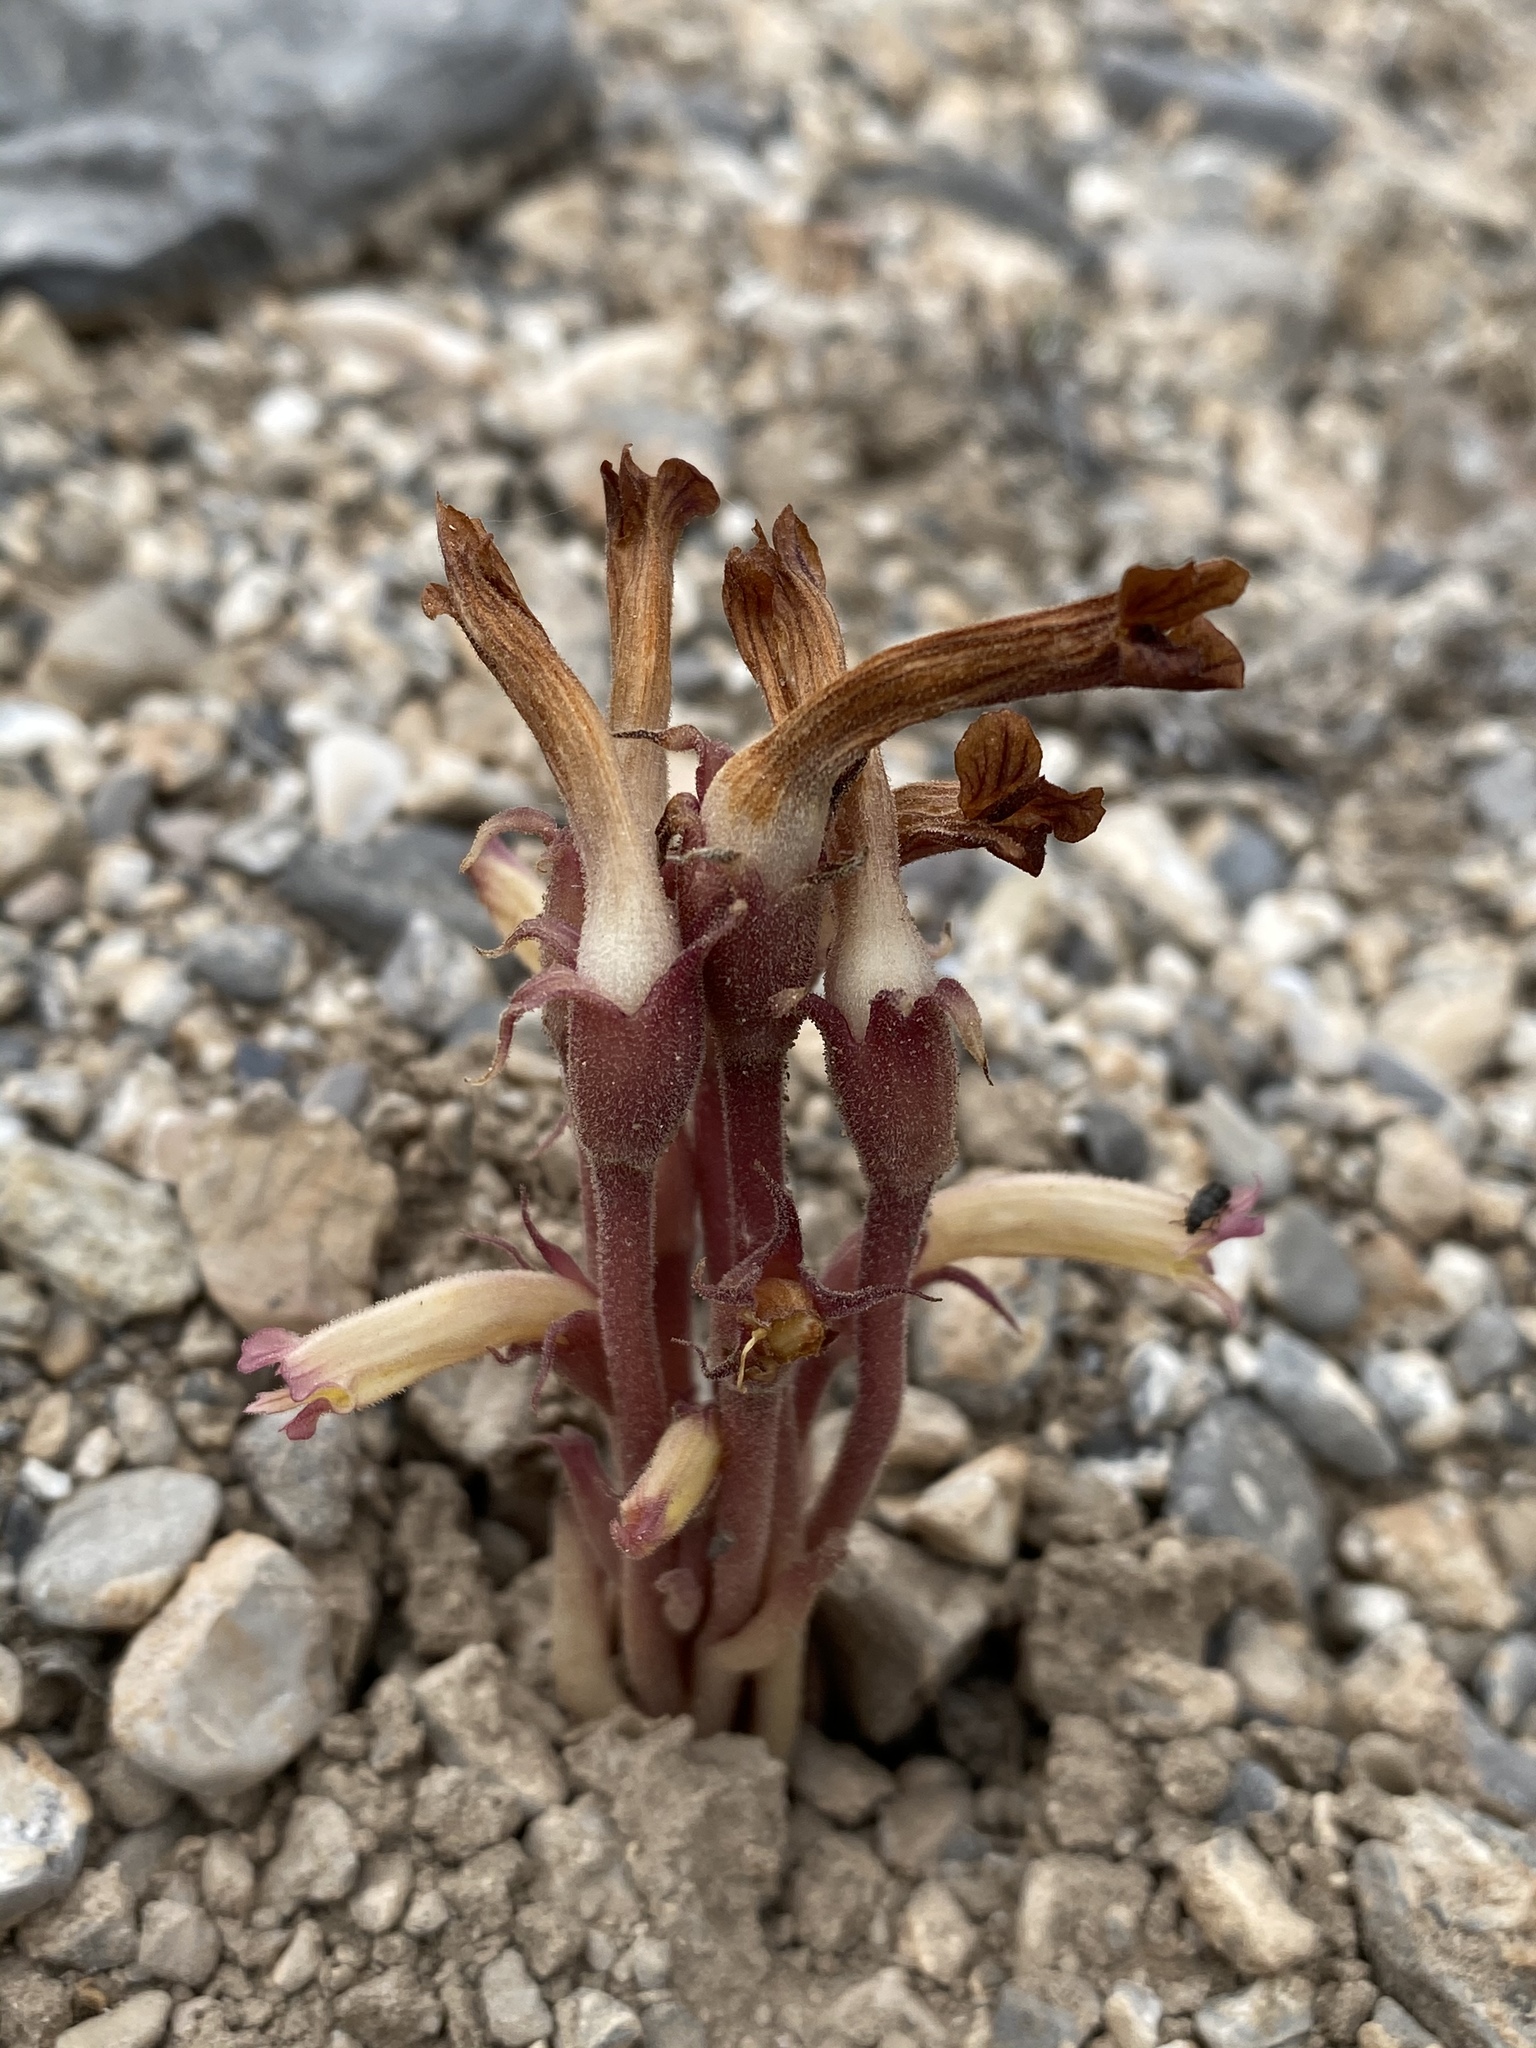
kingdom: Plantae
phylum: Tracheophyta
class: Magnoliopsida
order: Lamiales
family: Orobanchaceae
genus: Aphyllon
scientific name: Aphyllon fasciculatum
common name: Clustered broomrape
